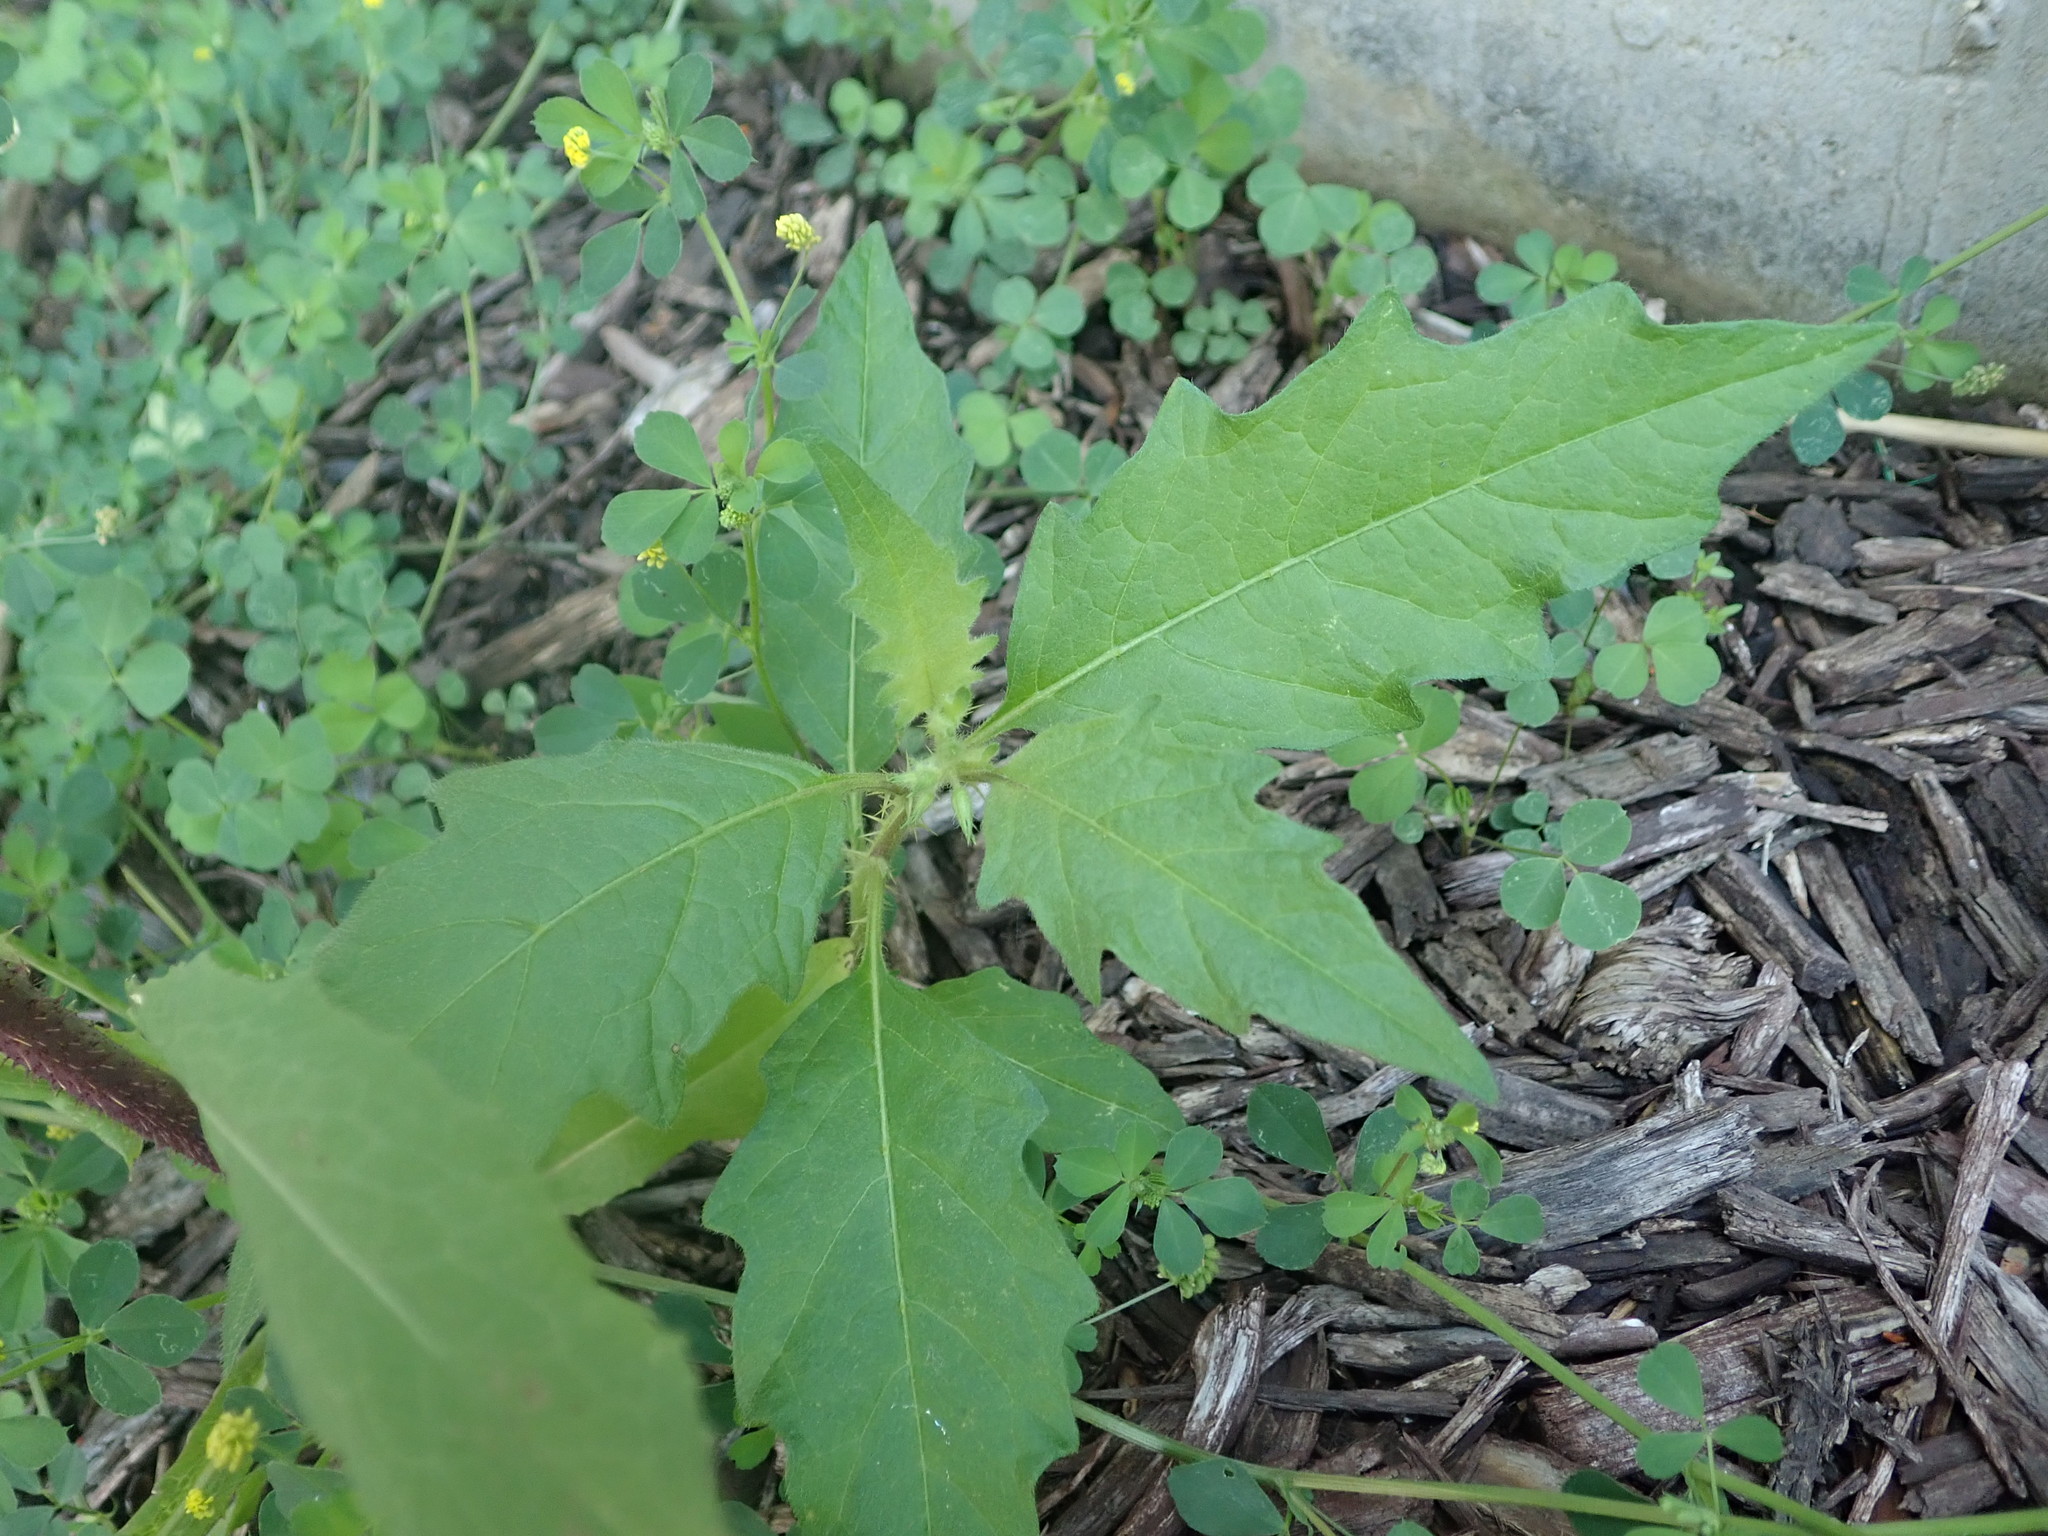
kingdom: Plantae
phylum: Tracheophyta
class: Magnoliopsida
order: Solanales
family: Solanaceae
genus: Solanum
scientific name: Solanum carolinense
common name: Horse-nettle
